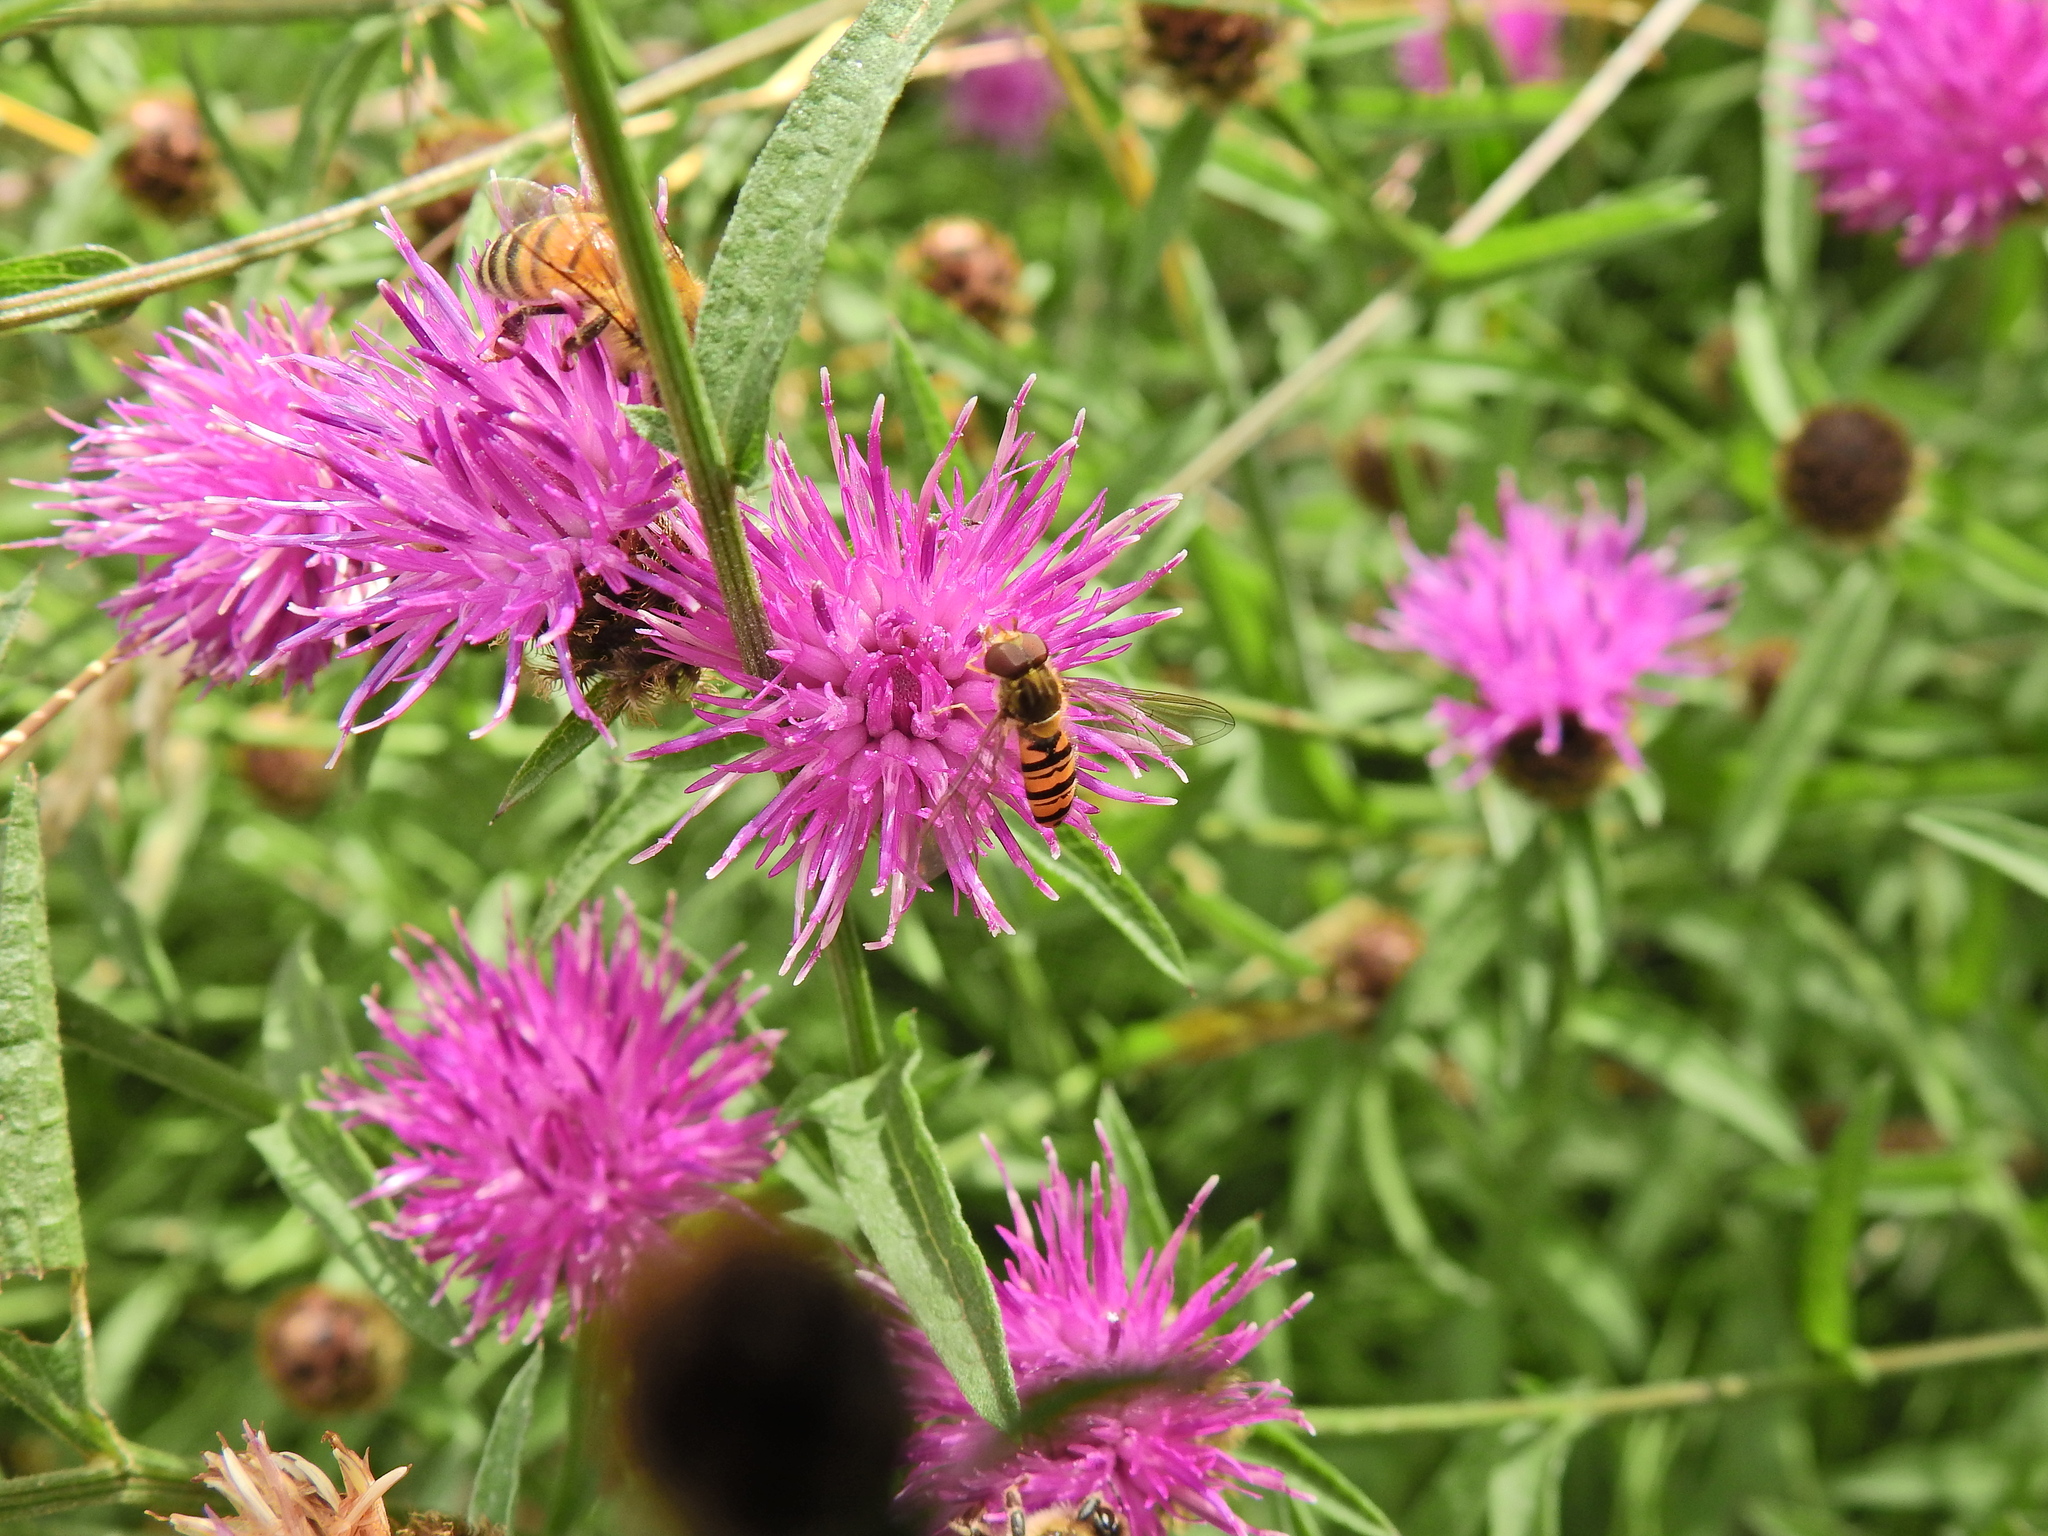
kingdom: Animalia
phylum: Arthropoda
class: Insecta
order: Diptera
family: Syrphidae
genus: Episyrphus
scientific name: Episyrphus balteatus
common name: Marmalade hoverfly
